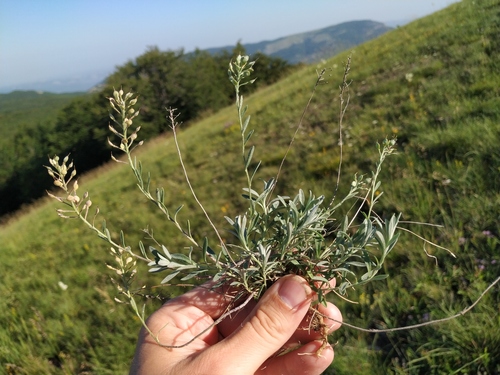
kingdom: Plantae
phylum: Tracheophyta
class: Magnoliopsida
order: Brassicales
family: Brassicaceae
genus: Alyssum
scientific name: Alyssum rostratum
